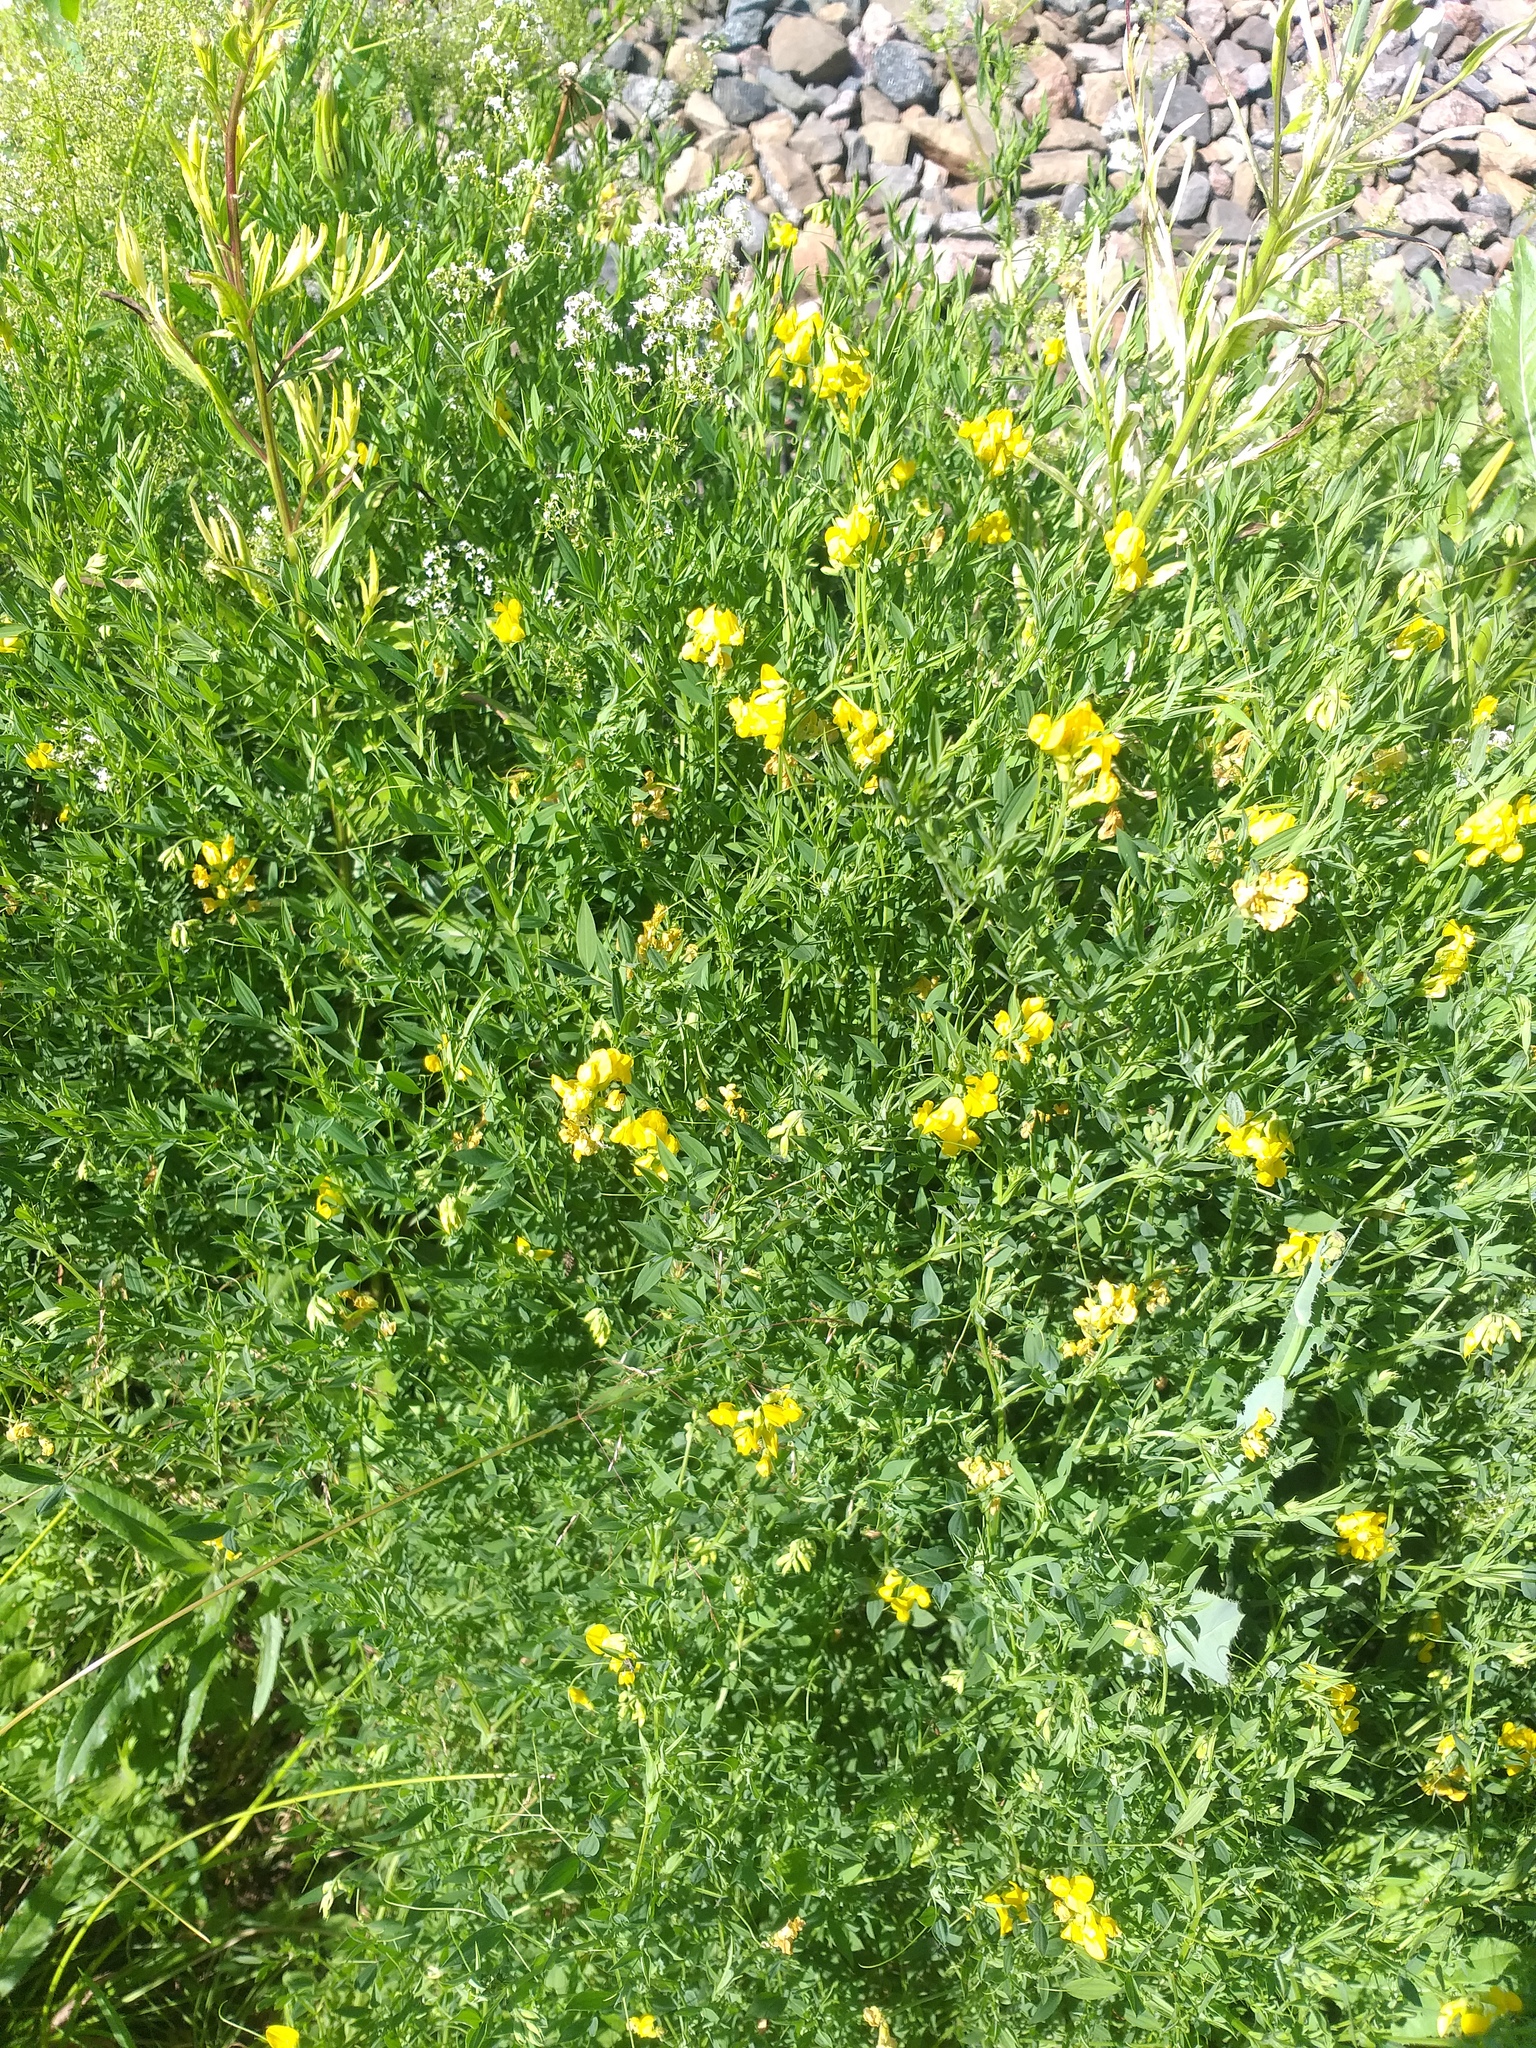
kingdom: Plantae
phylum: Tracheophyta
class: Magnoliopsida
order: Fabales
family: Fabaceae
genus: Lathyrus
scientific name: Lathyrus pratensis
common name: Meadow vetchling
